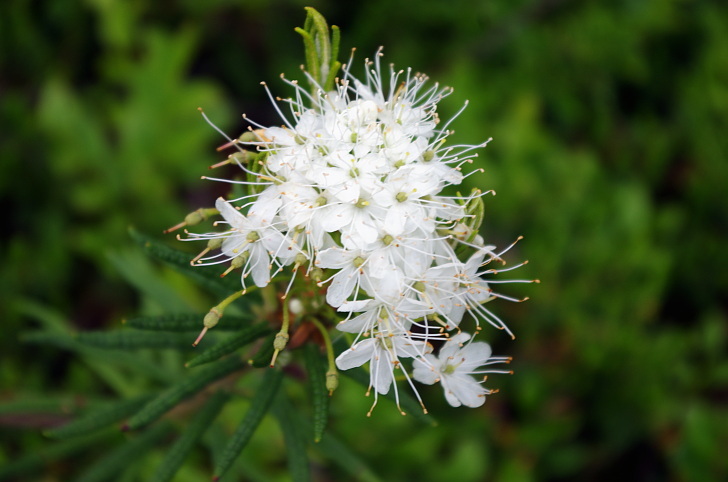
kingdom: Plantae
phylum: Tracheophyta
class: Magnoliopsida
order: Ericales
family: Ericaceae
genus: Rhododendron
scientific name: Rhododendron tomentosum
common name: Marsh labrador tea
